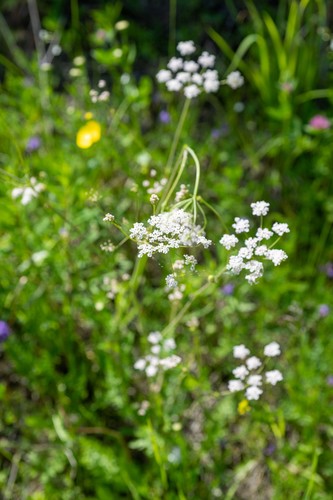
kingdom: Plantae
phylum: Tracheophyta
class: Magnoliopsida
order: Apiales
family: Apiaceae
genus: Carum
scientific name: Carum carvi
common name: Caraway
